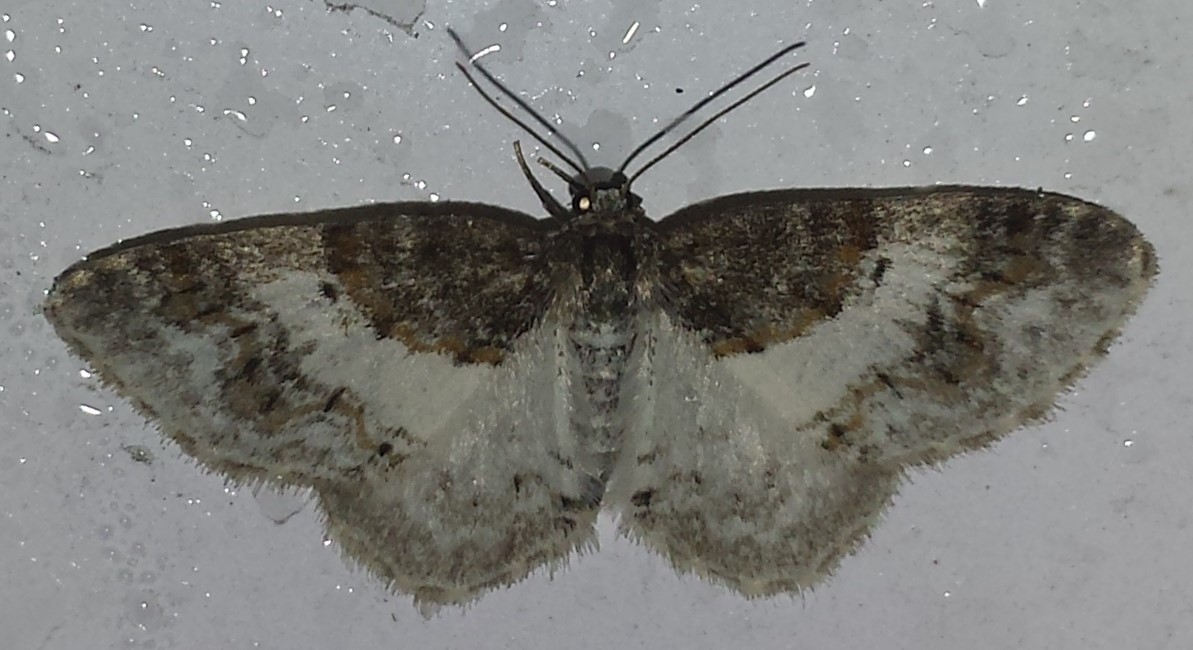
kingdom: Animalia
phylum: Arthropoda
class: Insecta
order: Lepidoptera
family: Geometridae
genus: Hydrelia
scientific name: Hydrelia condensata
